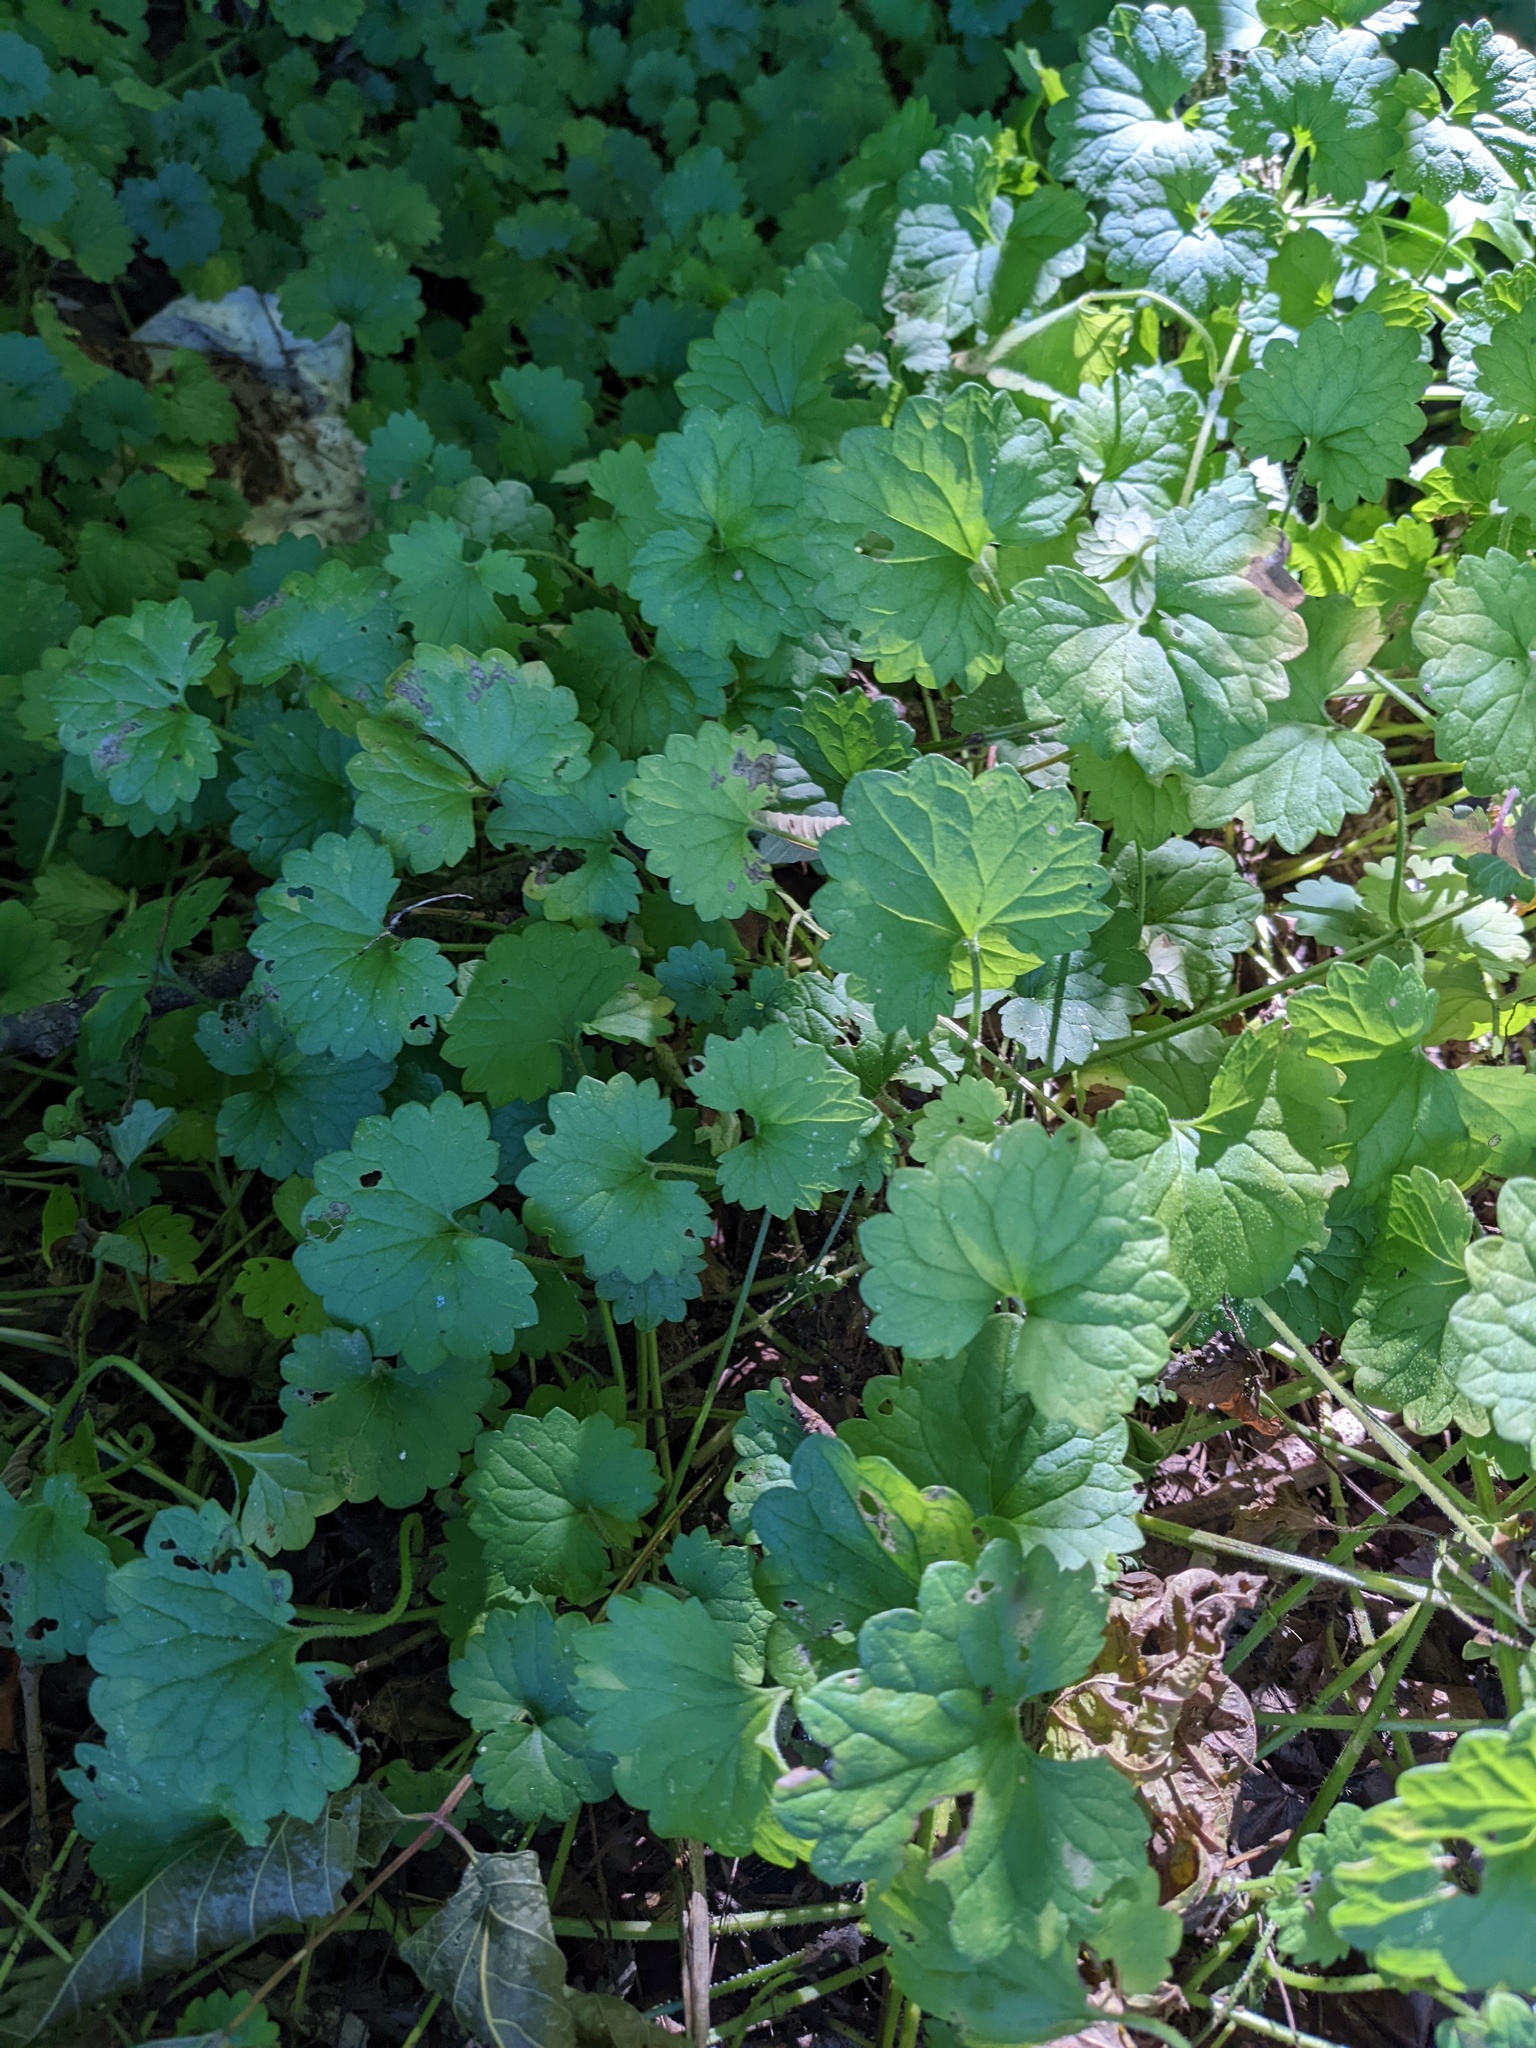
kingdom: Plantae
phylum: Tracheophyta
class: Magnoliopsida
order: Lamiales
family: Lamiaceae
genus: Glechoma
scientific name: Glechoma hederacea
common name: Ground ivy
